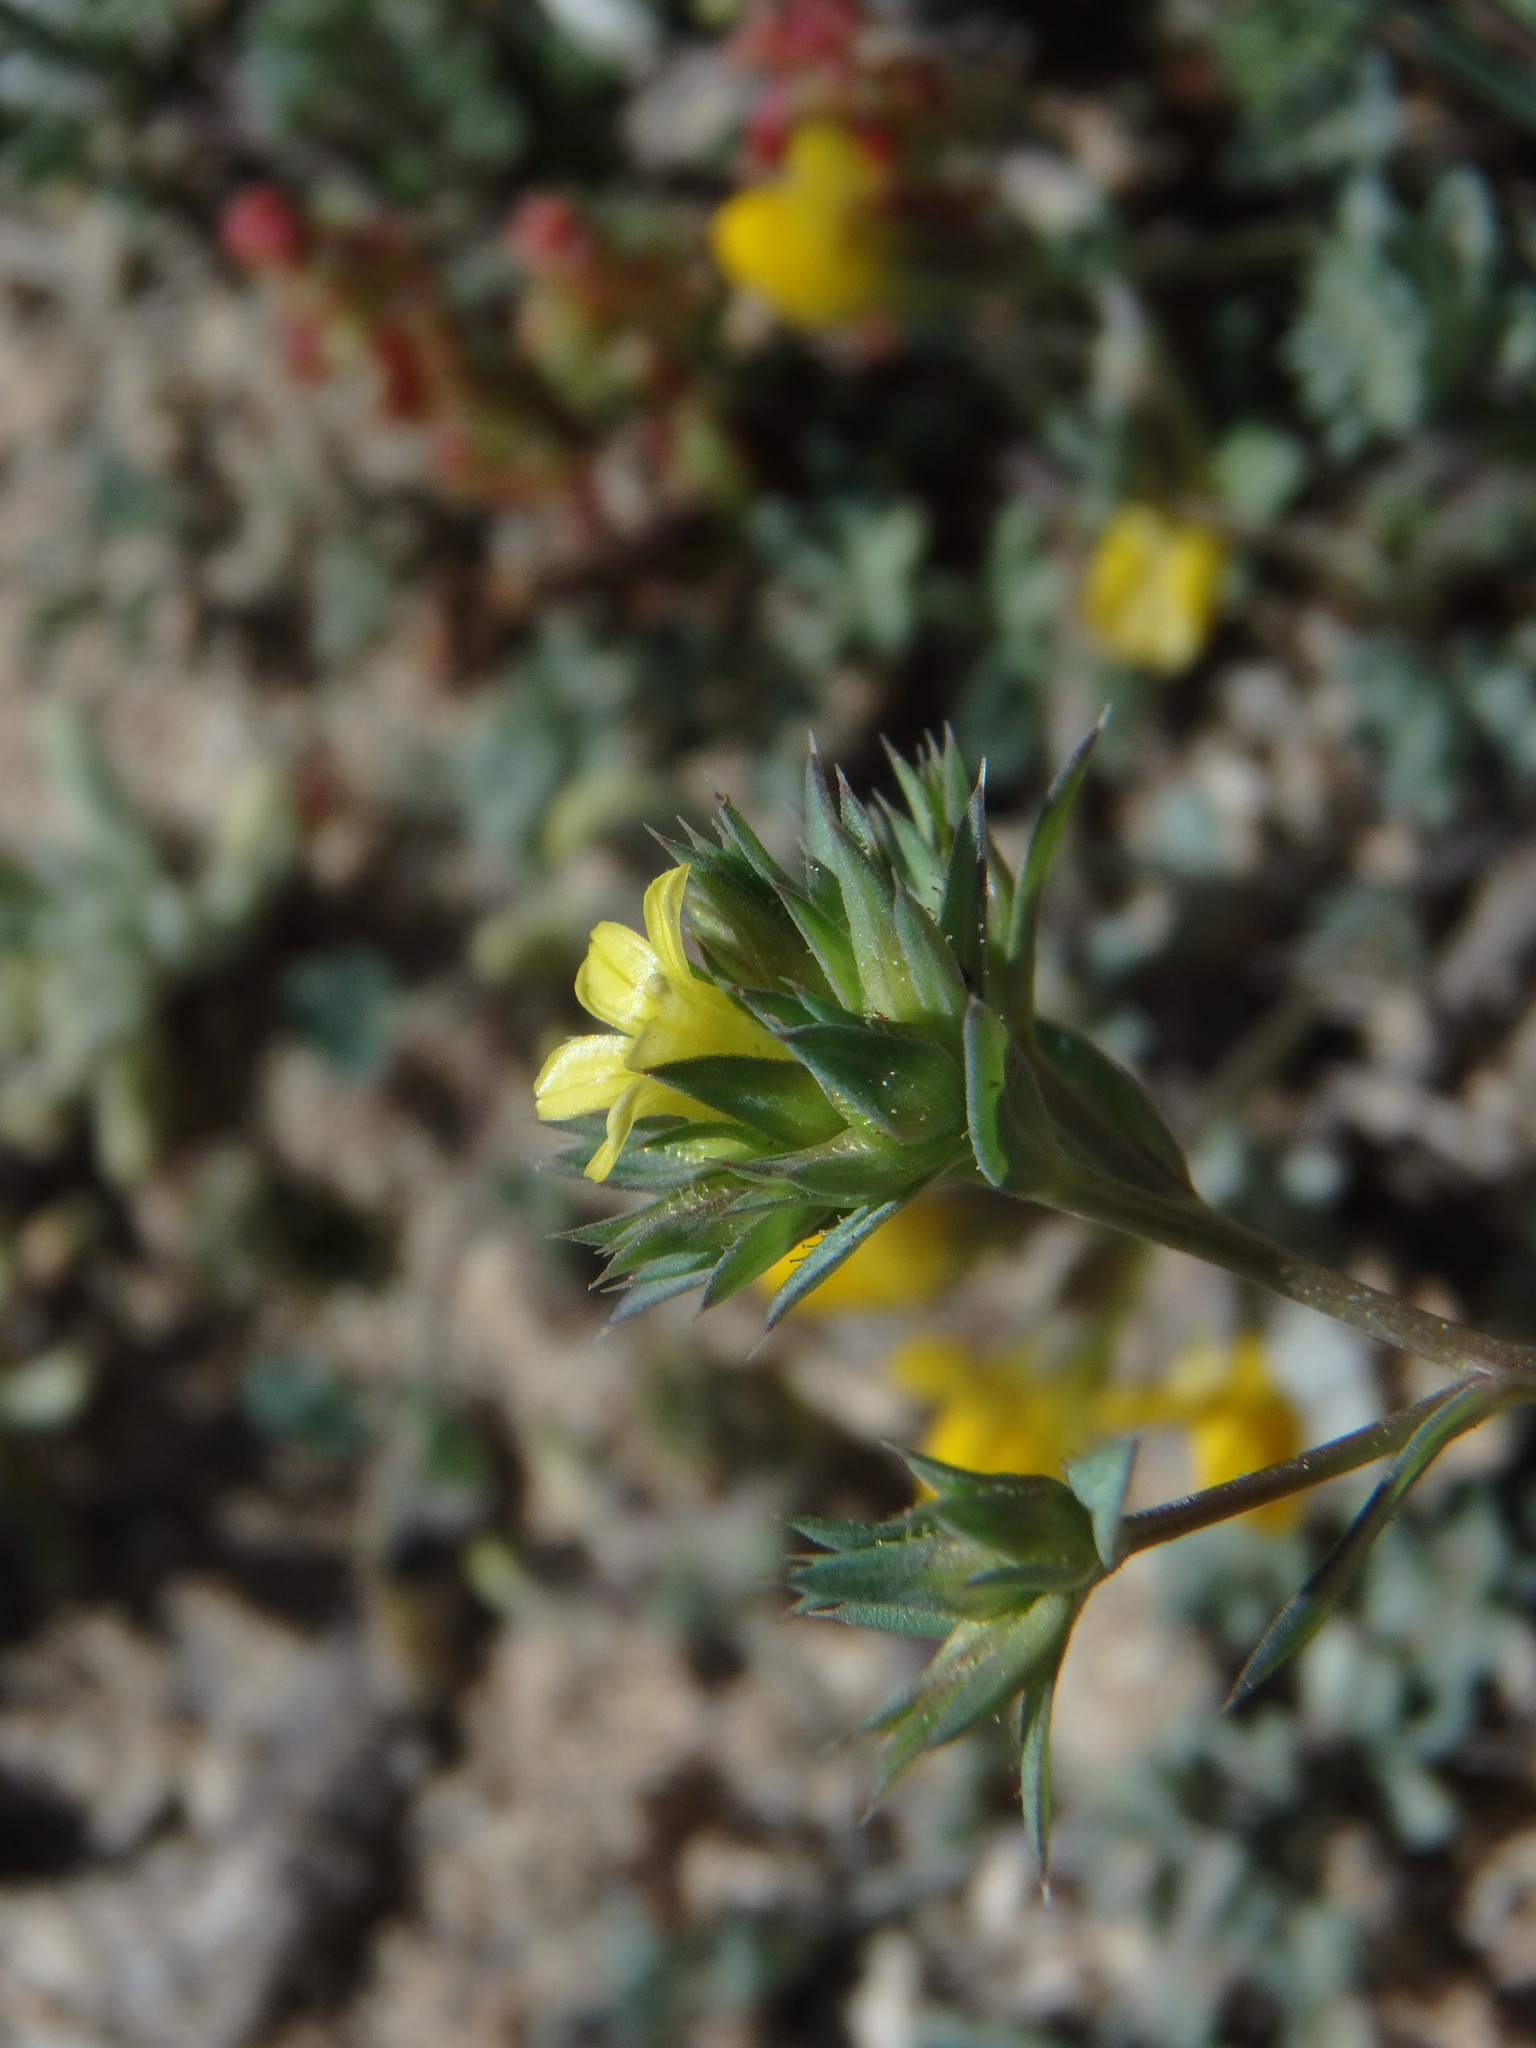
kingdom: Plantae
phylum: Tracheophyta
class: Magnoliopsida
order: Malpighiales
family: Linaceae
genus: Linum
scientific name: Linum strictum
